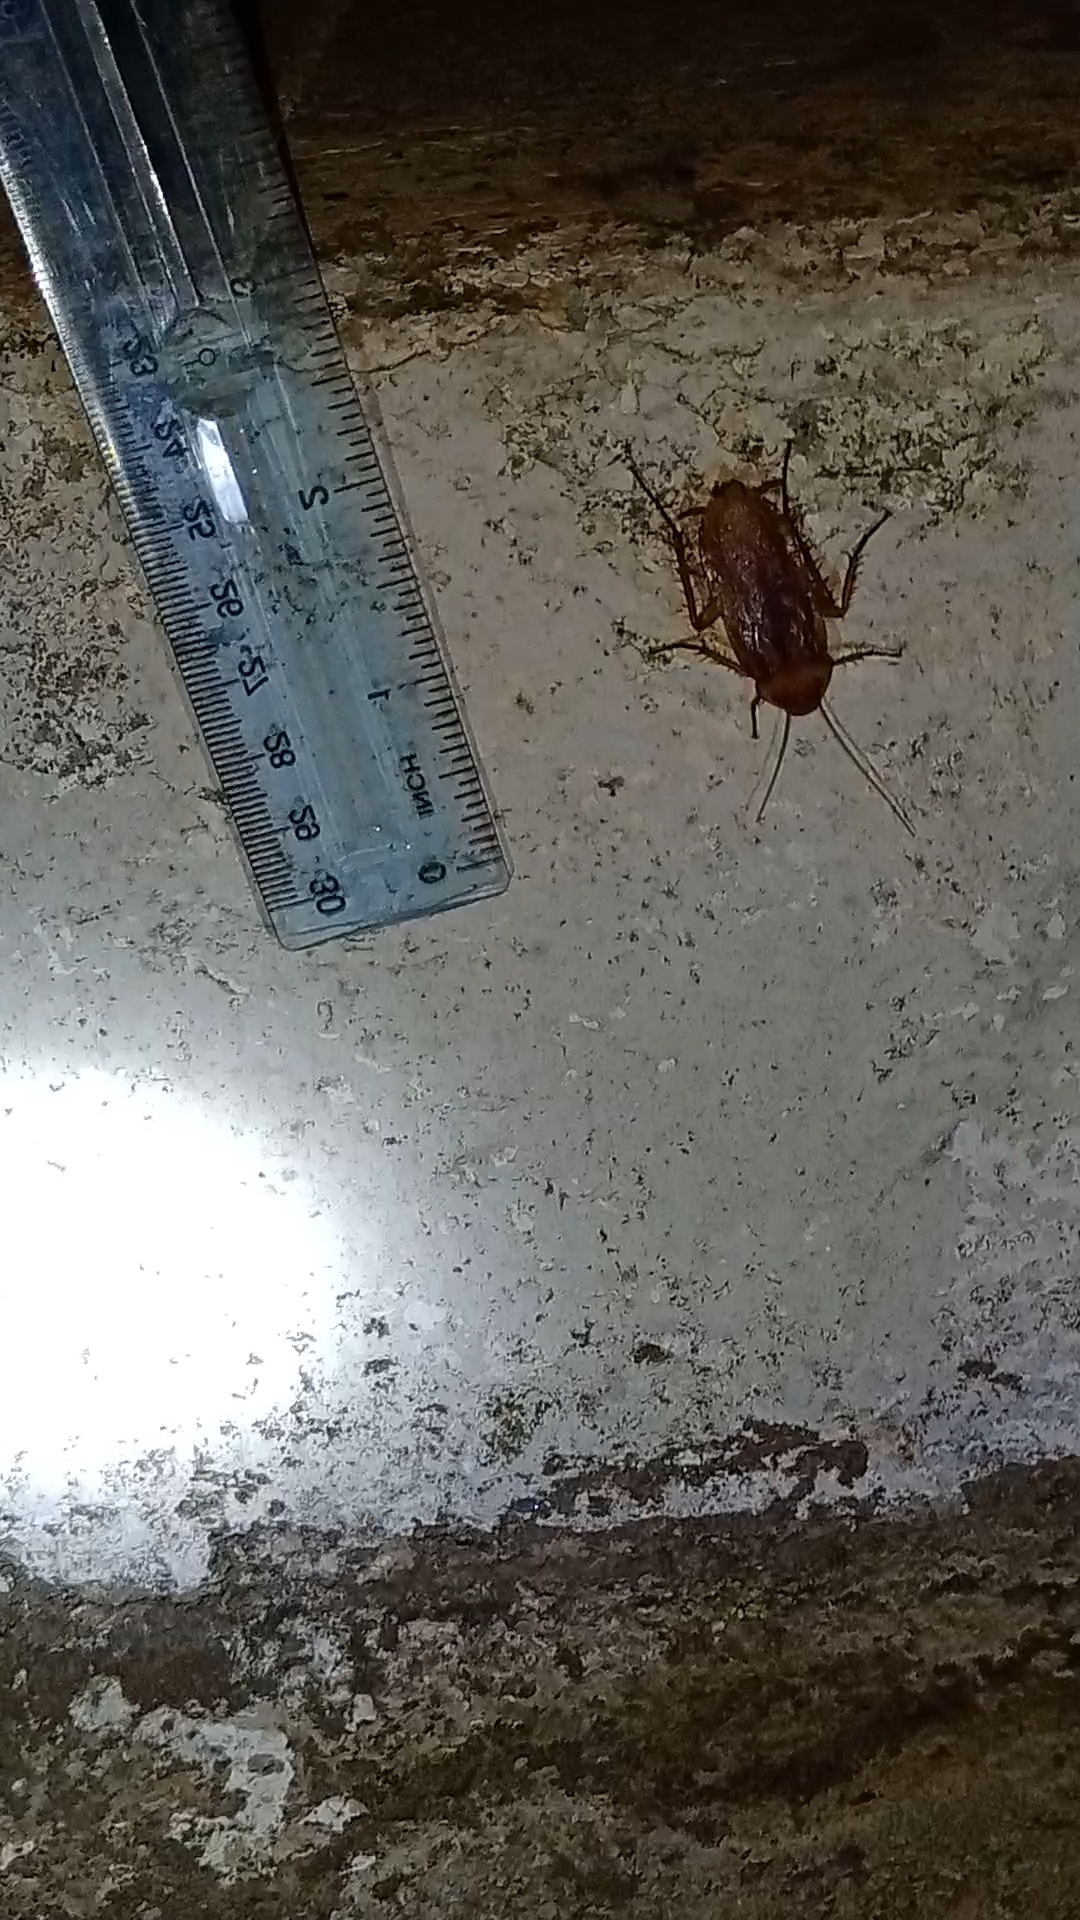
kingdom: Animalia
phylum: Arthropoda
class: Insecta
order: Blattodea
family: Blattidae
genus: Periplaneta
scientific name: Periplaneta americana
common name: American cockroach
